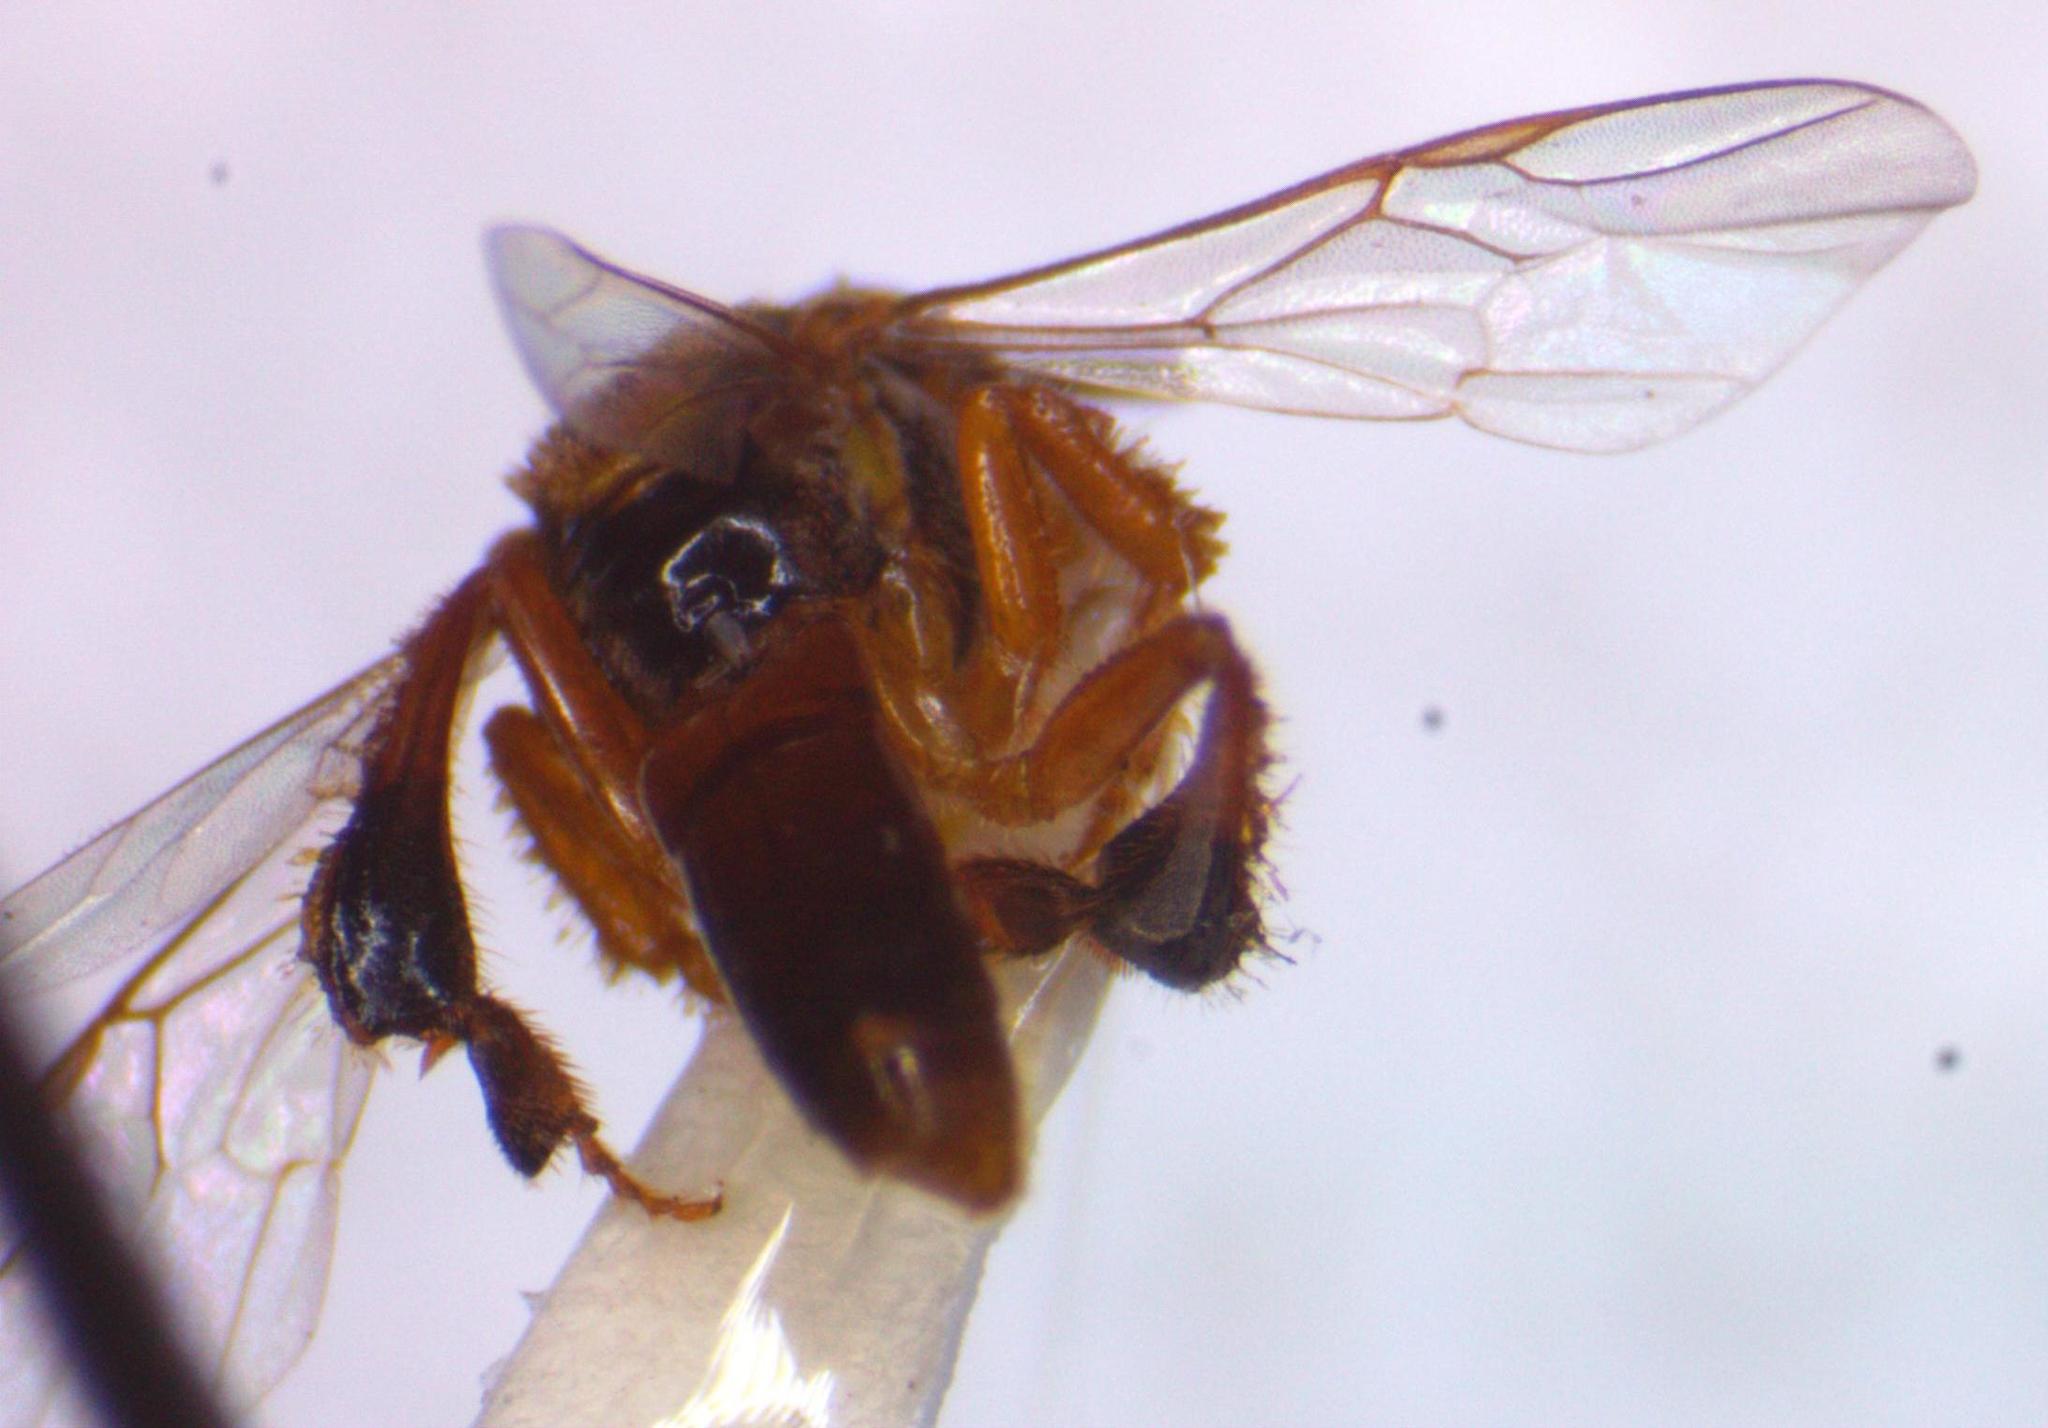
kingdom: Animalia
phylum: Arthropoda
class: Insecta
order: Hymenoptera
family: Apidae
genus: Tetragonisca
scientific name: Tetragonisca angustula
